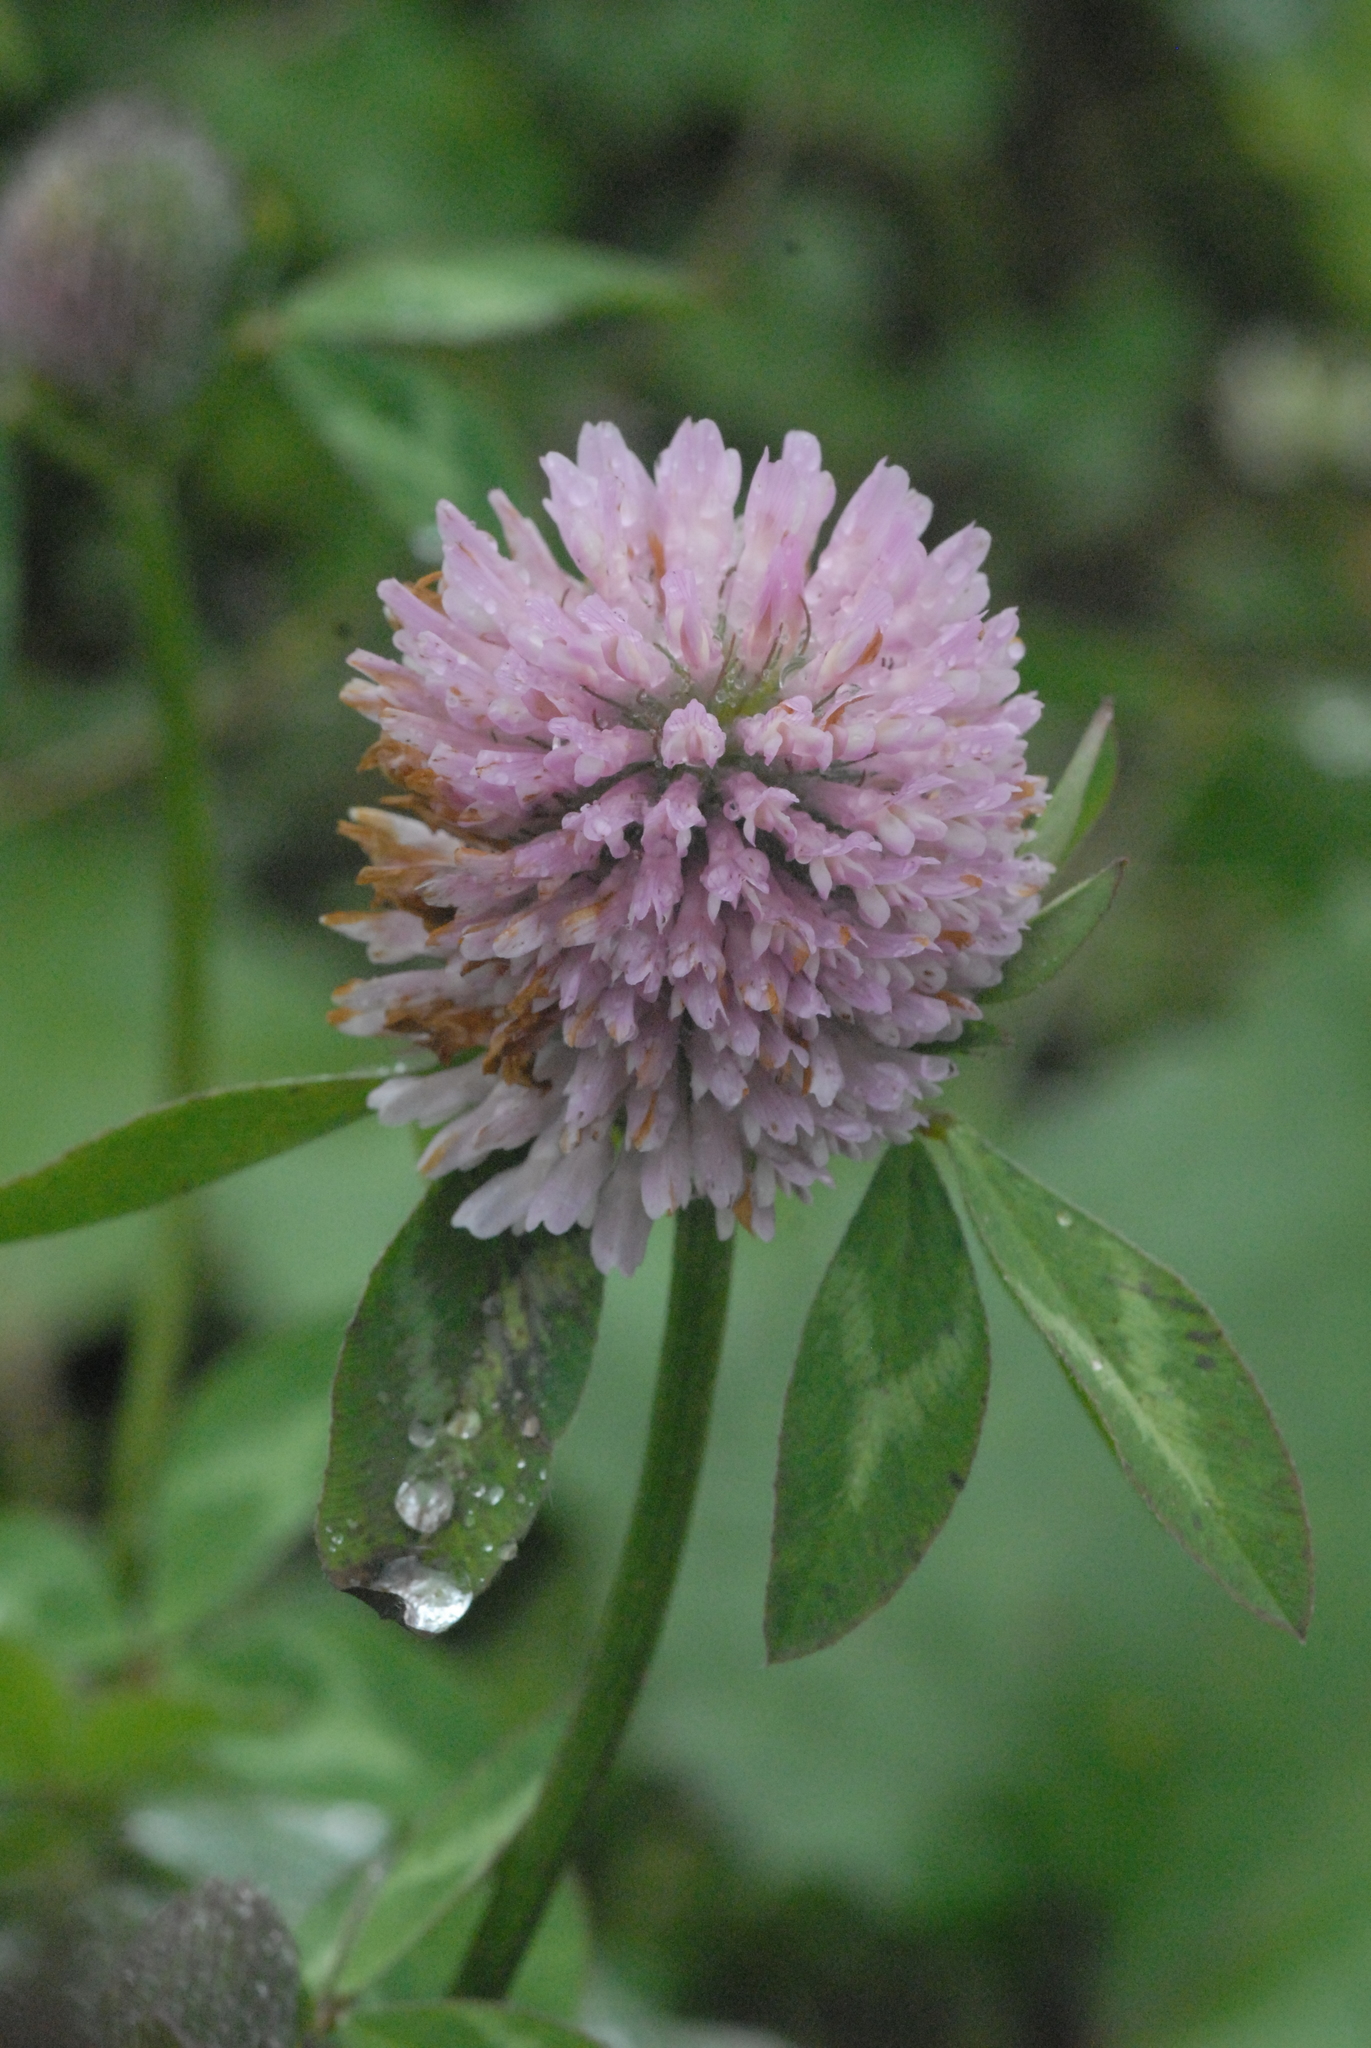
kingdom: Plantae
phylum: Tracheophyta
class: Magnoliopsida
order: Fabales
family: Fabaceae
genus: Trifolium
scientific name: Trifolium pratense
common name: Red clover
